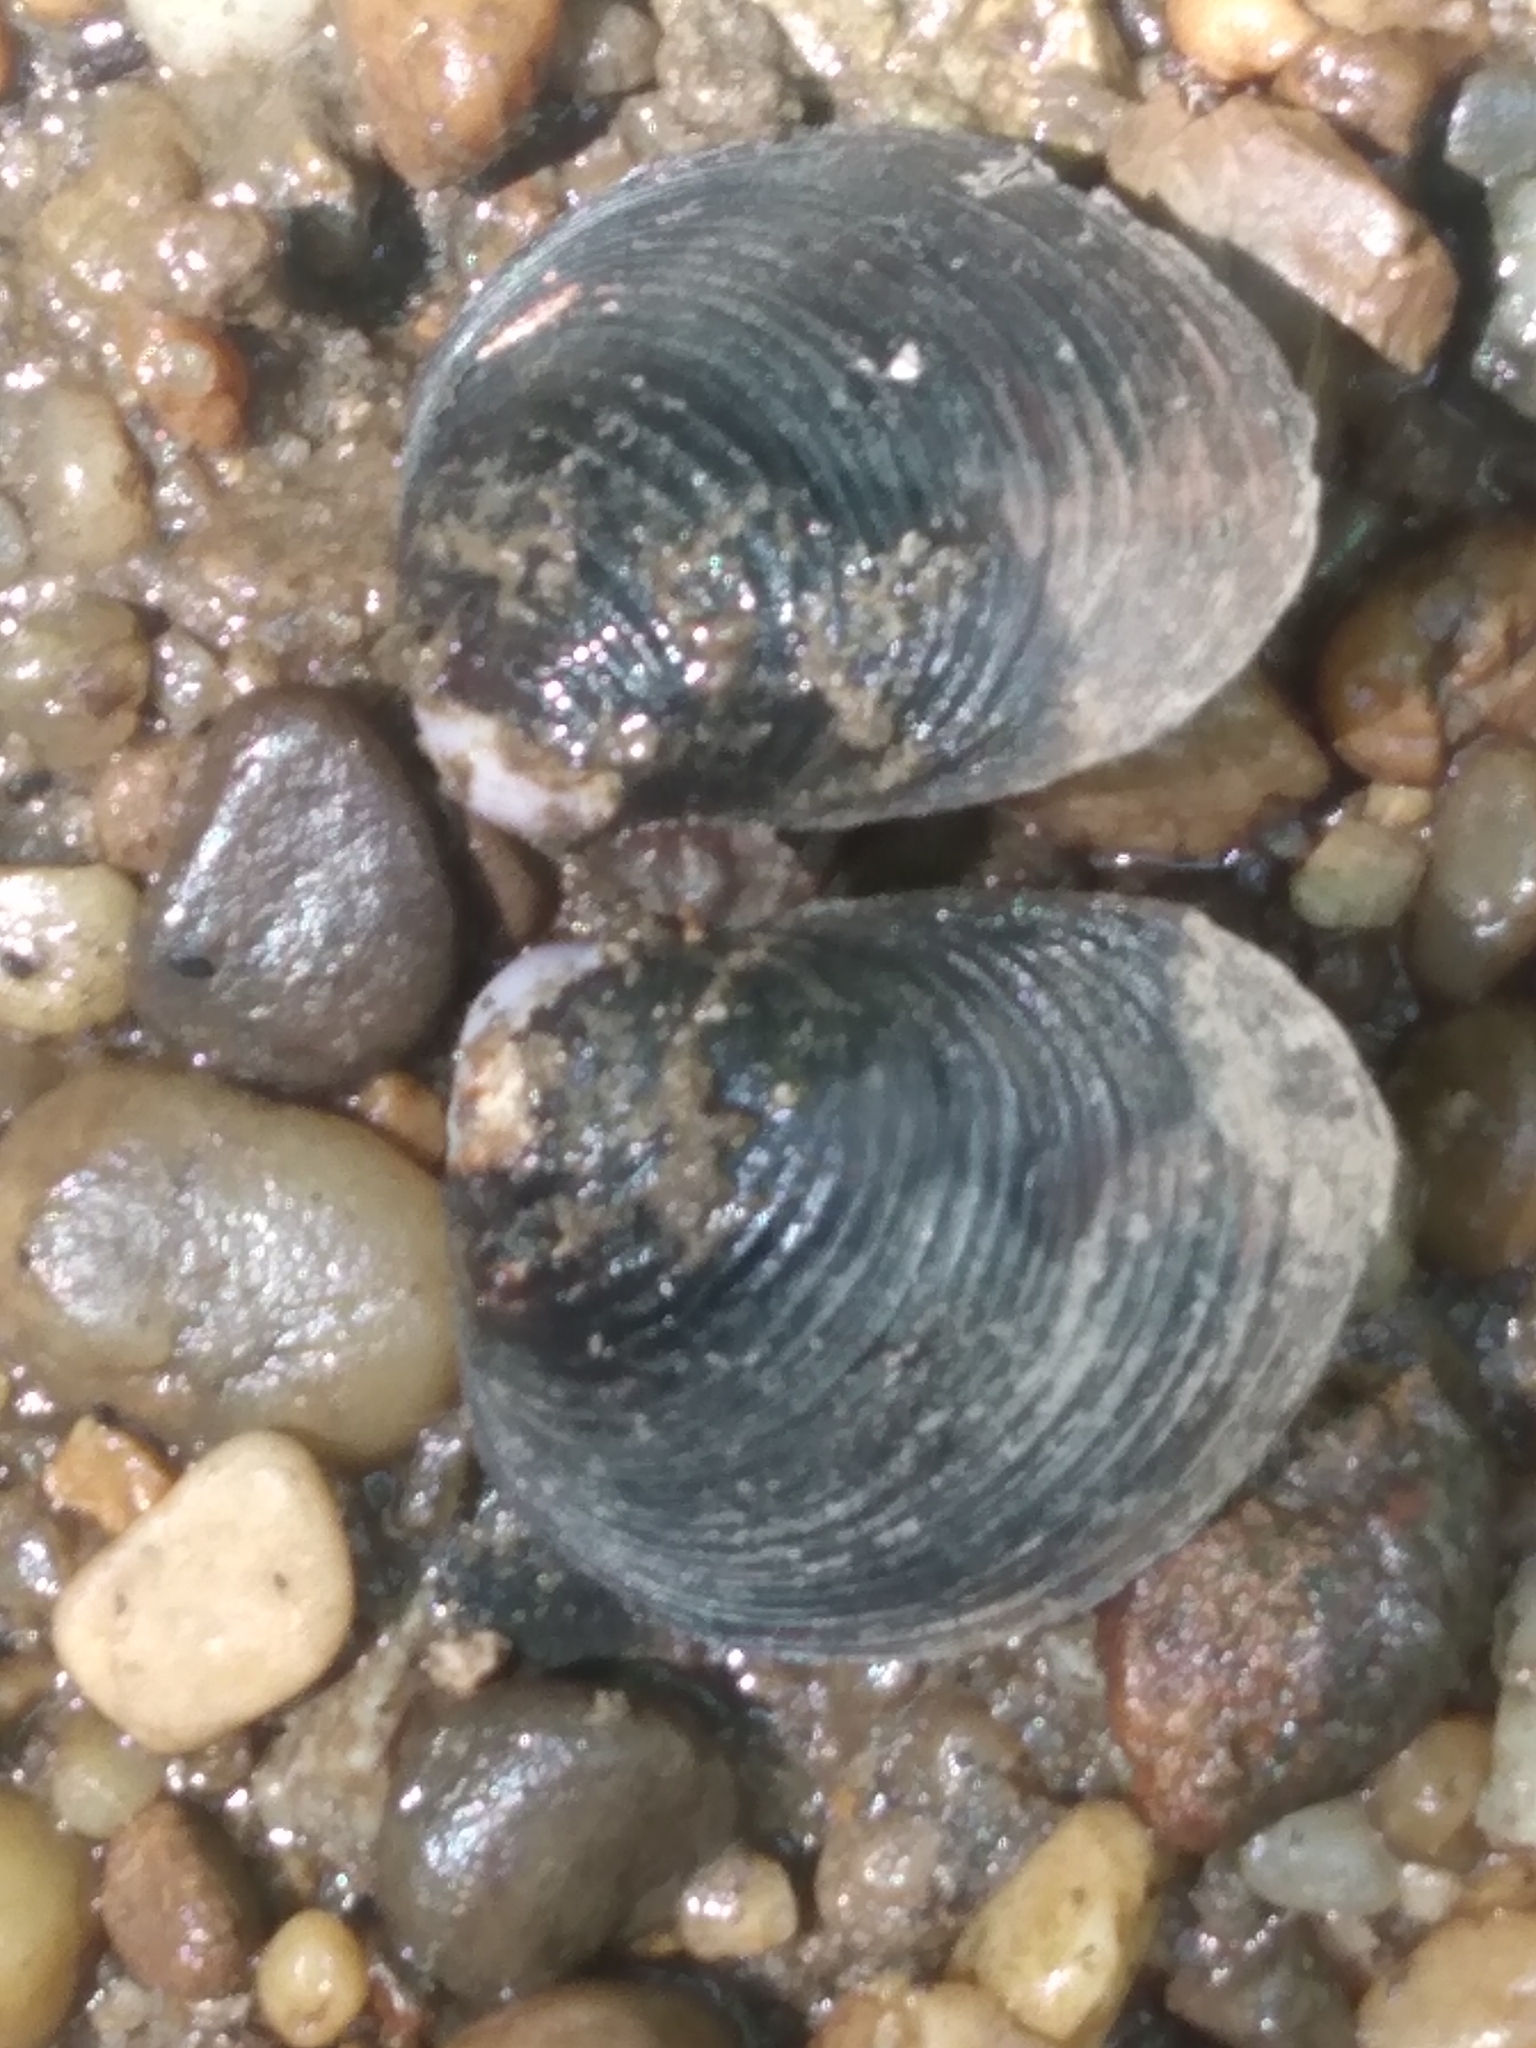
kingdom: Animalia
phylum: Mollusca
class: Bivalvia
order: Venerida
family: Cyrenidae
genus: Corbicula
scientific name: Corbicula fluminea
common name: Asian clam
